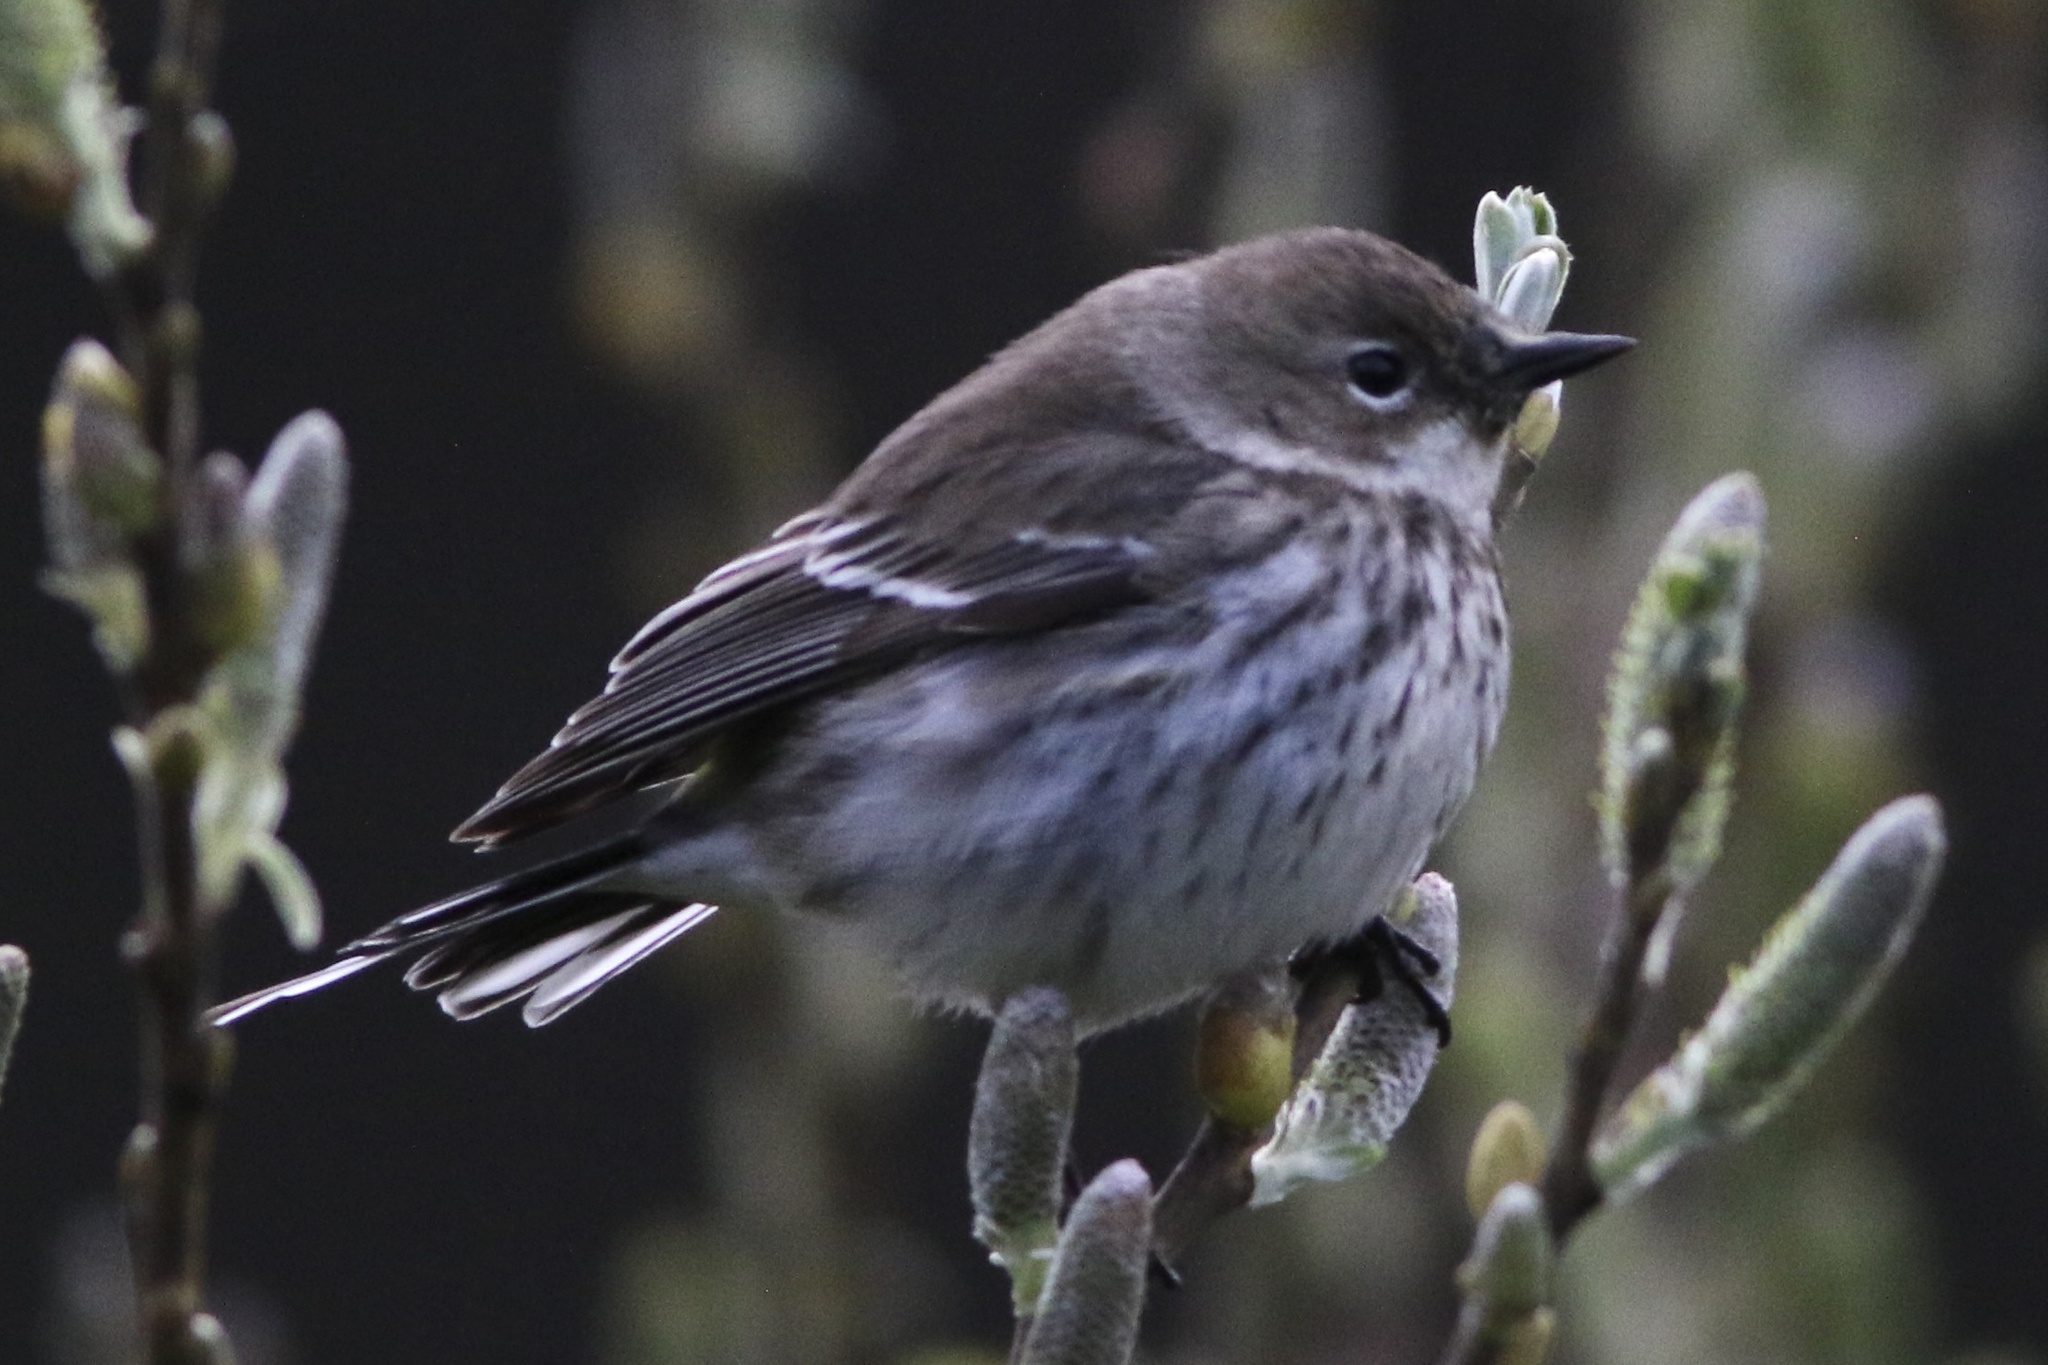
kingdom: Animalia
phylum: Chordata
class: Aves
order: Passeriformes
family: Parulidae
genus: Setophaga
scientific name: Setophaga coronata
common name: Myrtle warbler
